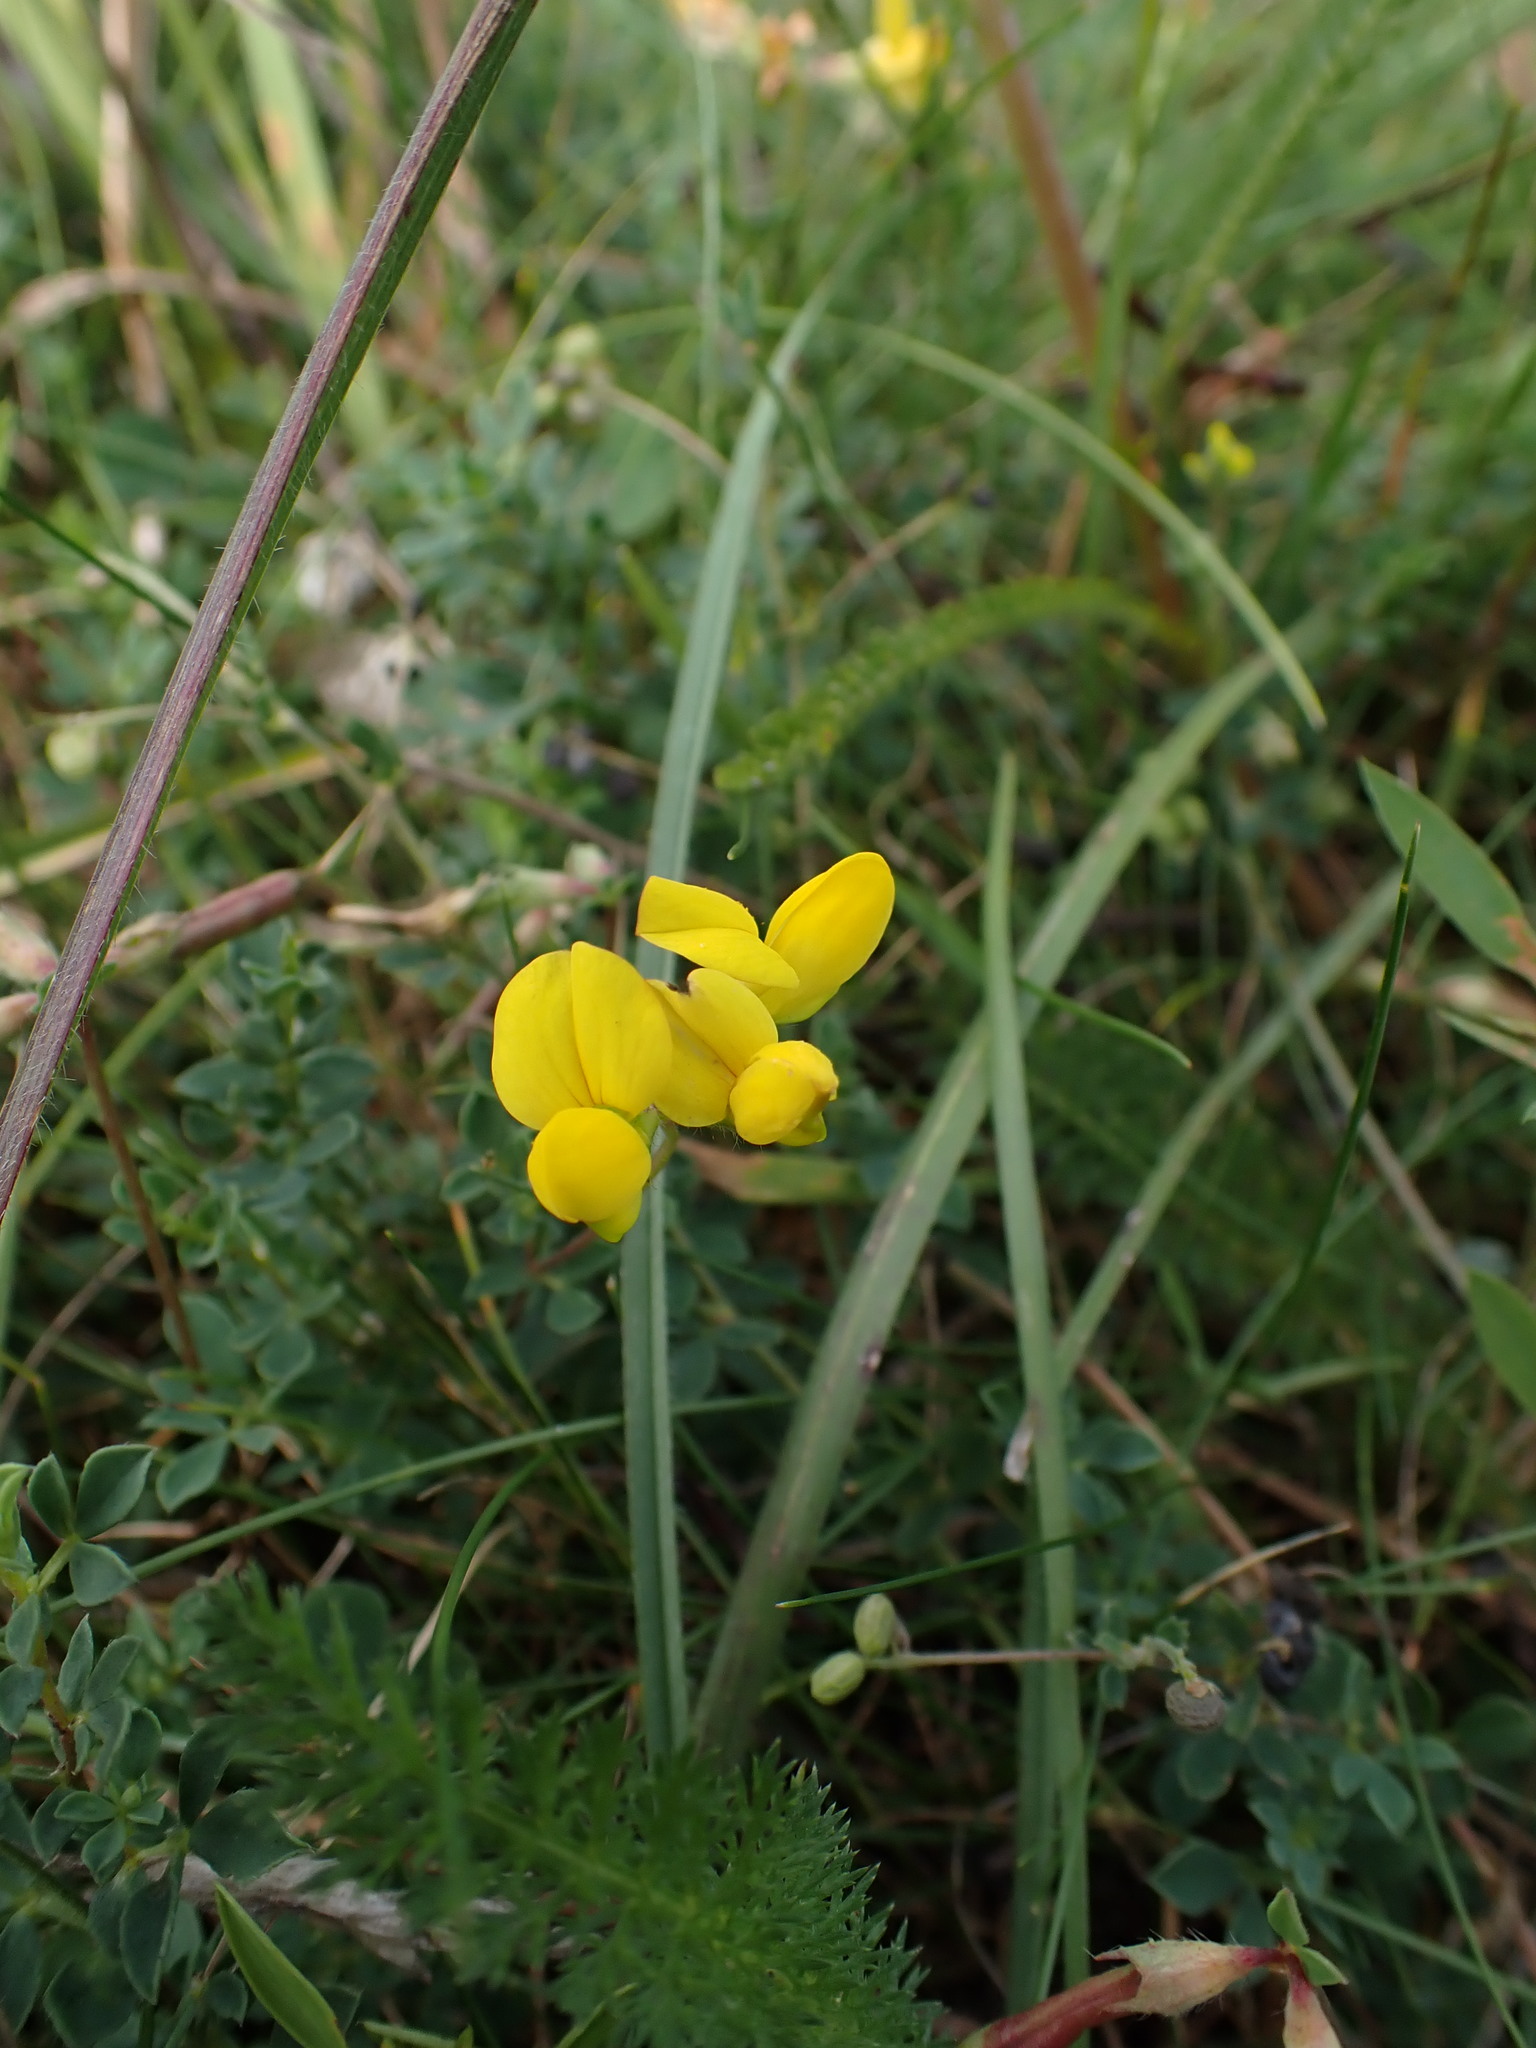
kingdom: Plantae
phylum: Tracheophyta
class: Magnoliopsida
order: Fabales
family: Fabaceae
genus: Lotus
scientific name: Lotus corniculatus
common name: Common bird's-foot-trefoil
